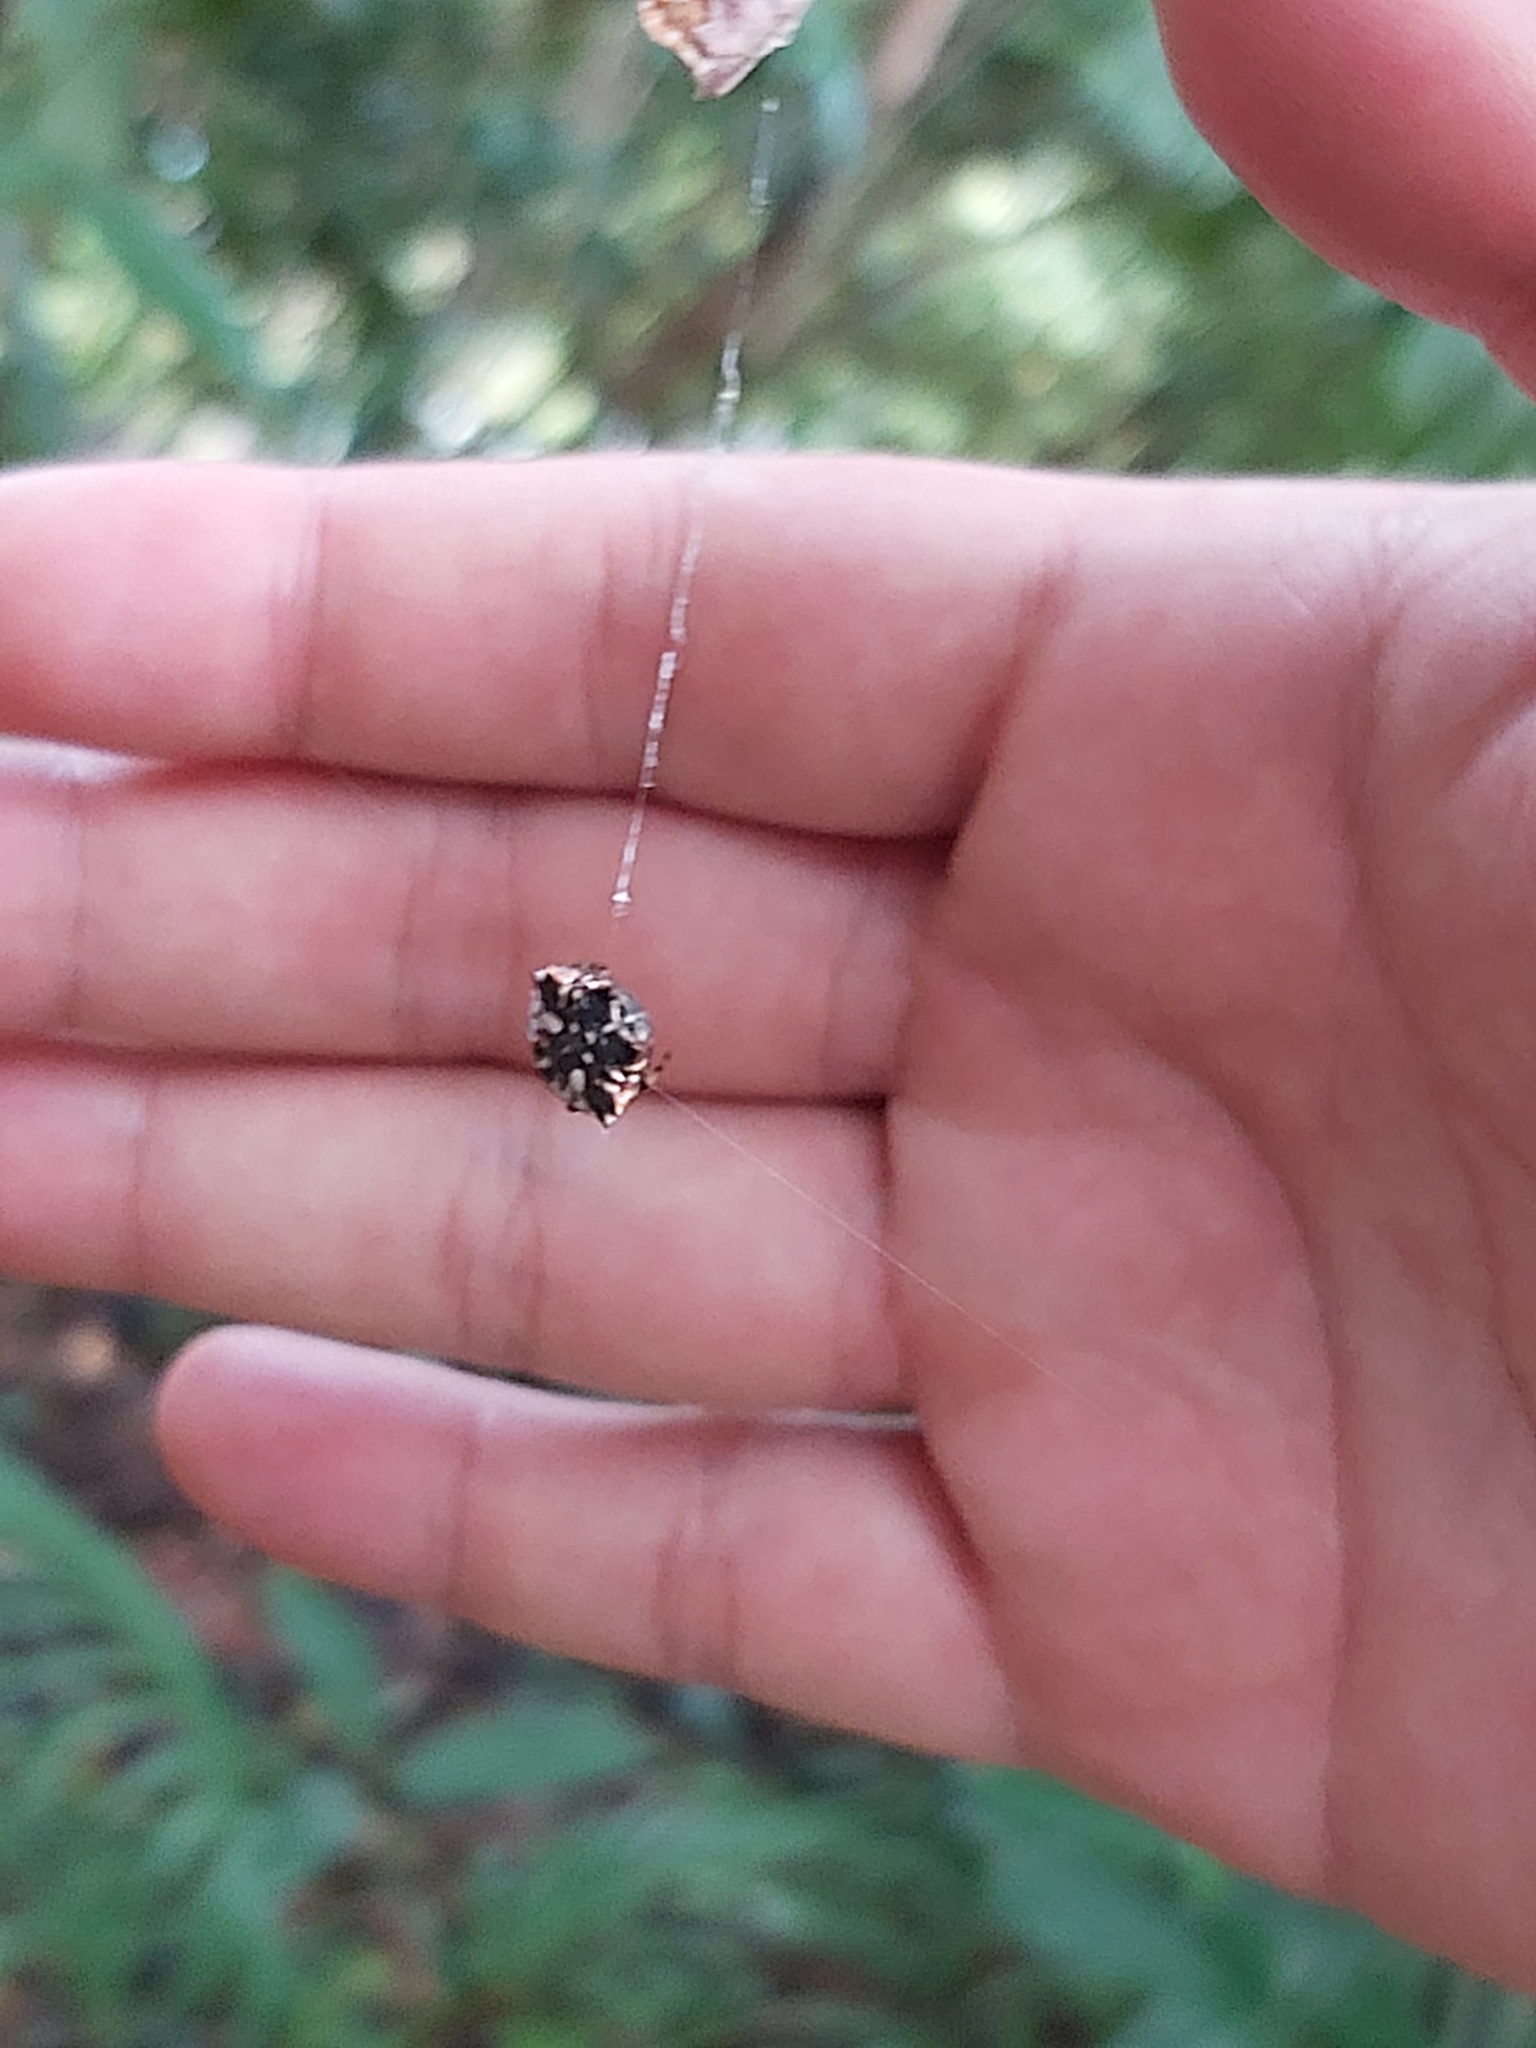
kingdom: Animalia
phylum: Arthropoda
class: Arachnida
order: Araneae
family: Araneidae
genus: Gasteracantha
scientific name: Gasteracantha sacerdotalis
